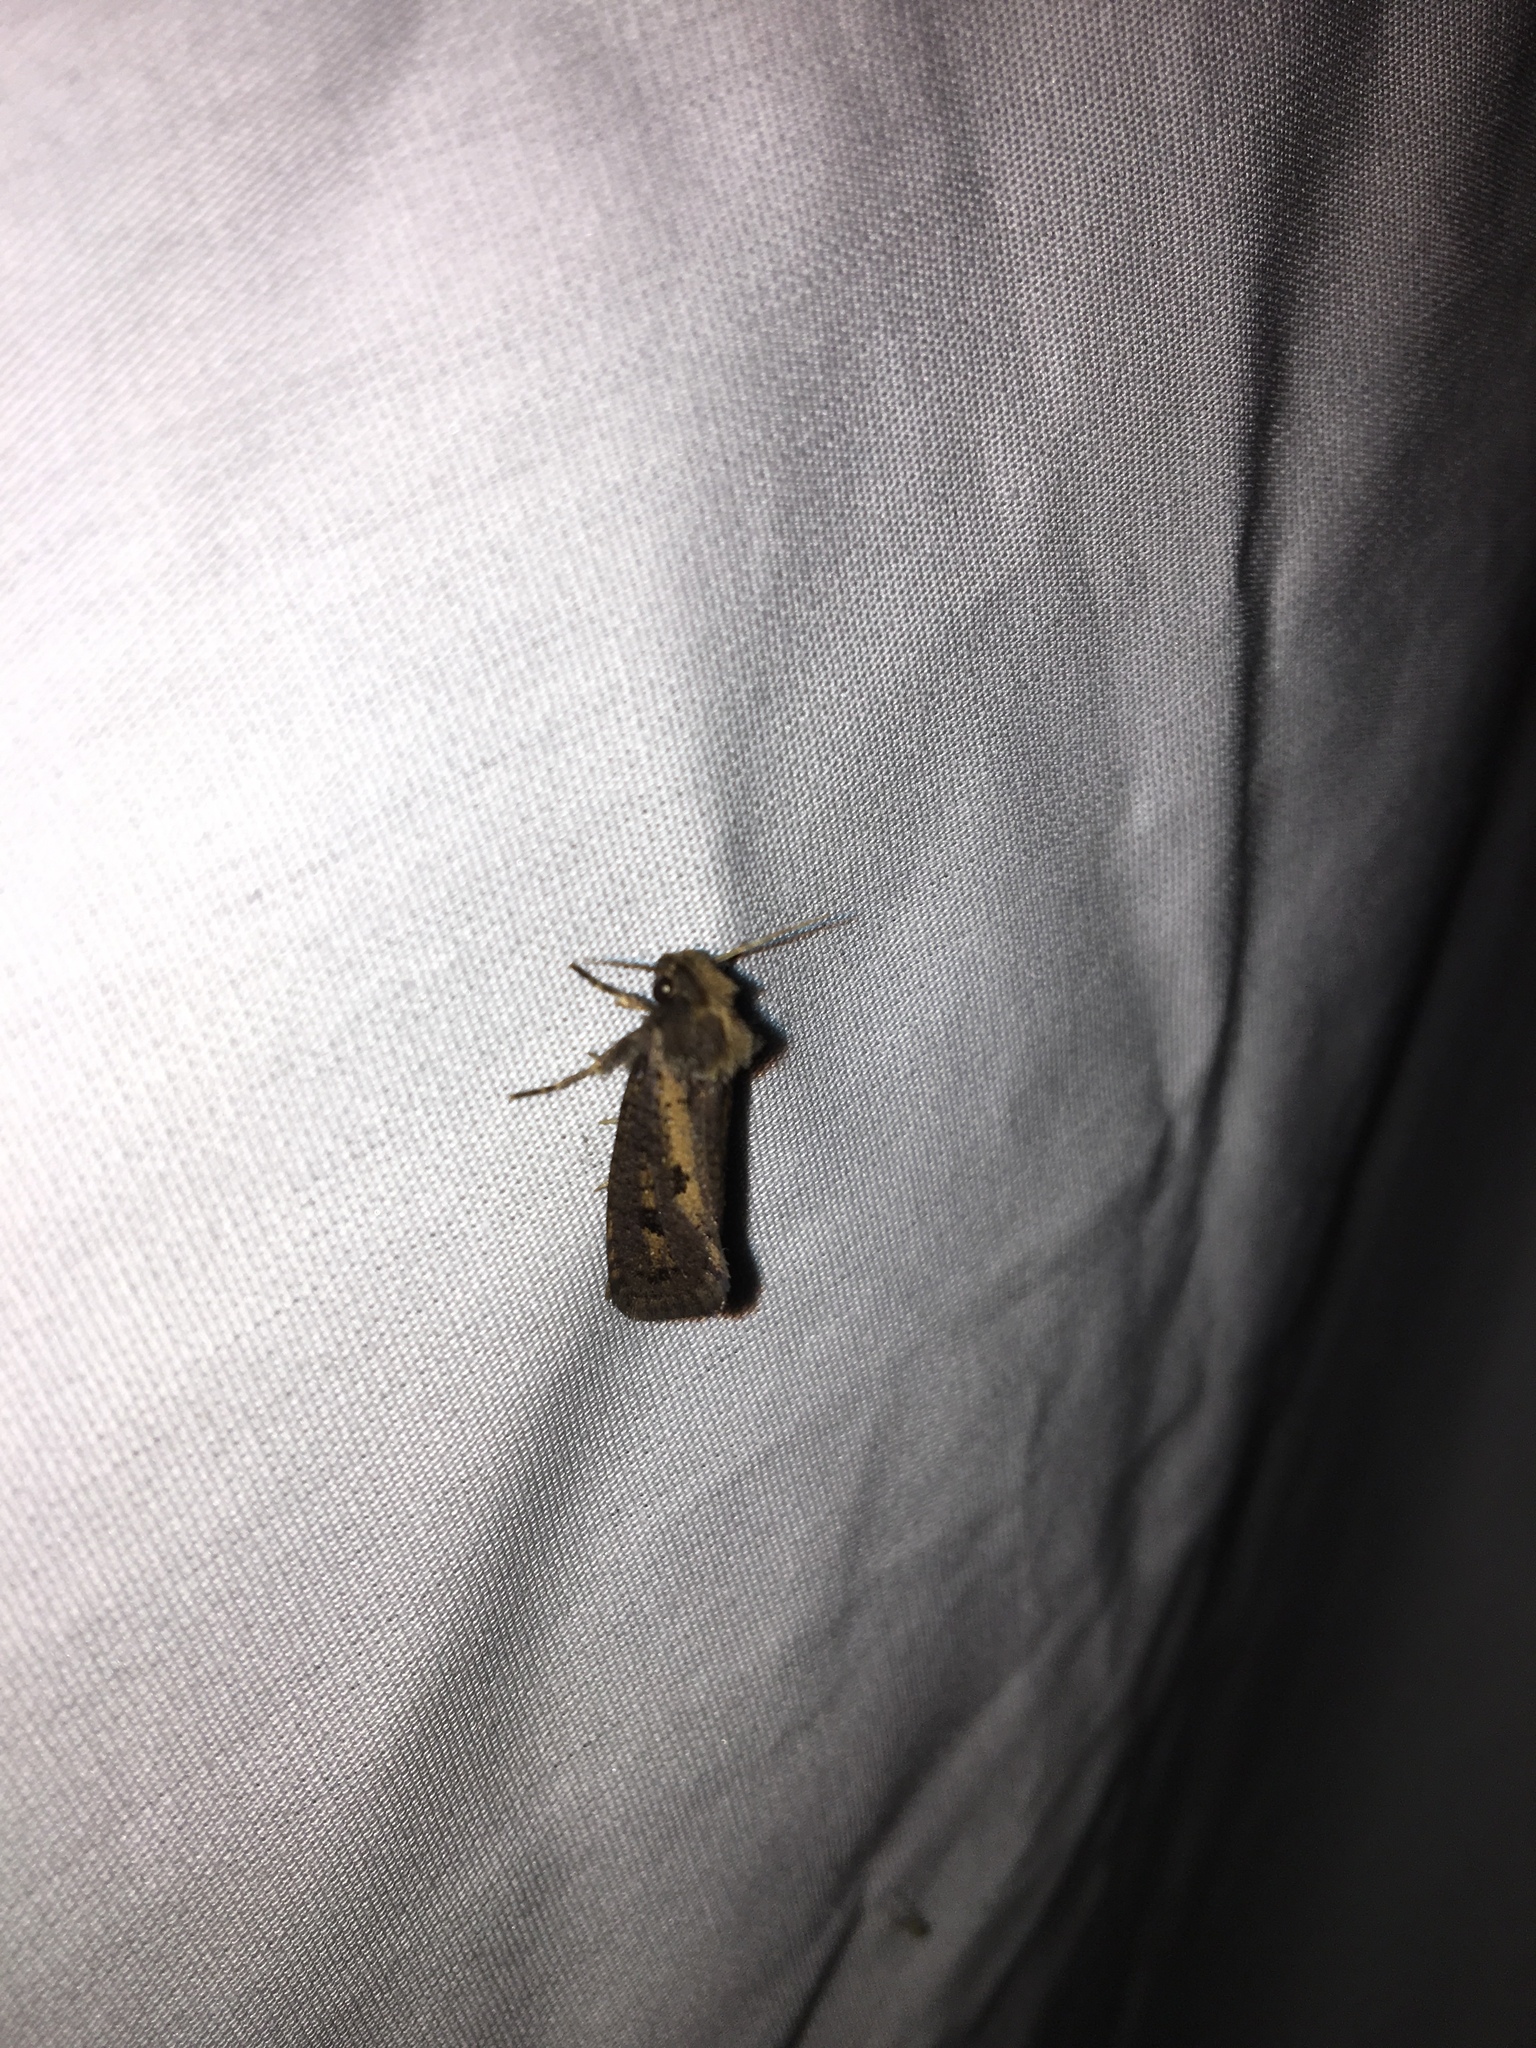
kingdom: Animalia
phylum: Arthropoda
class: Insecta
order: Lepidoptera
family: Tineidae
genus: Acrolophus
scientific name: Acrolophus popeanella
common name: Clemens' grass tubeworm moth
